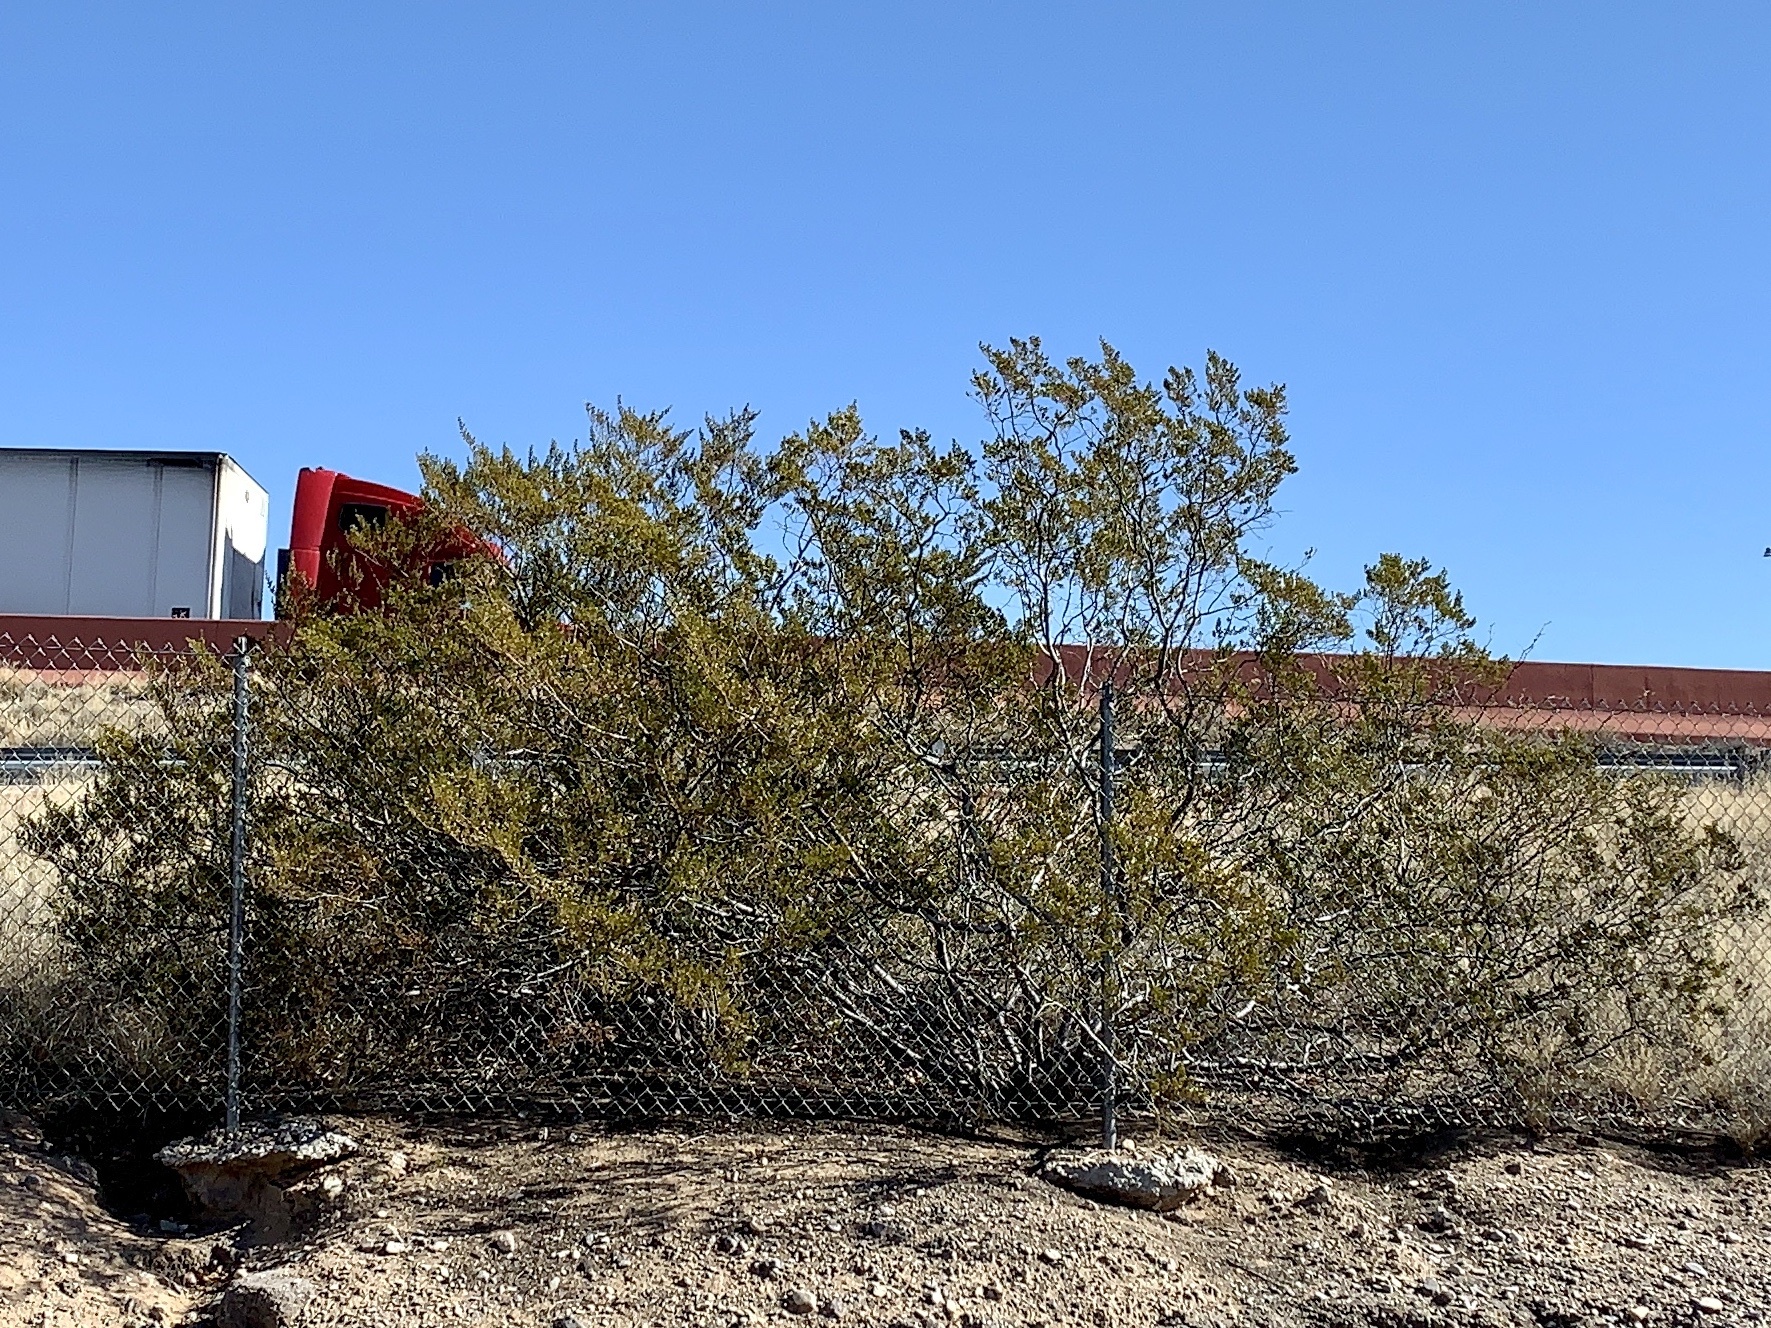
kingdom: Plantae
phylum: Tracheophyta
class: Magnoliopsida
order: Zygophyllales
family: Zygophyllaceae
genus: Larrea
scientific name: Larrea tridentata
